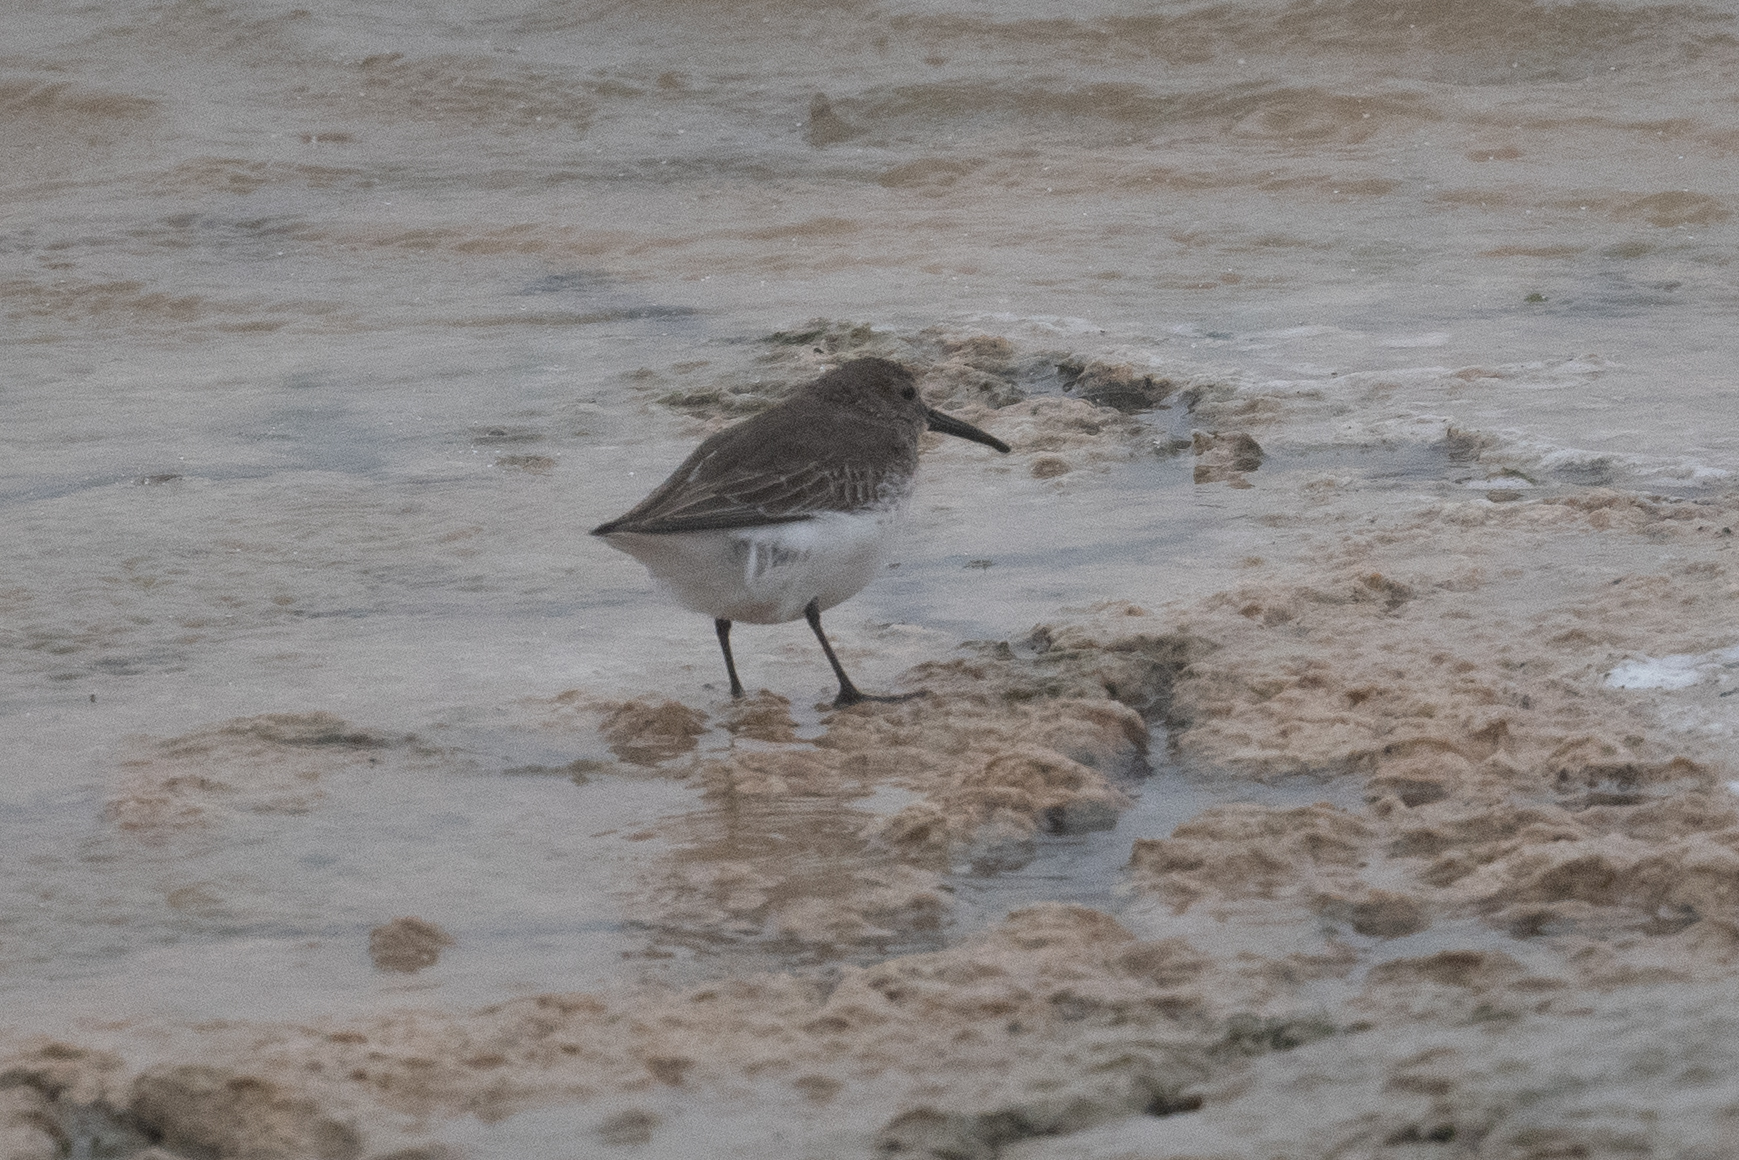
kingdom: Animalia
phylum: Chordata
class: Aves
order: Charadriiformes
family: Scolopacidae
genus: Calidris
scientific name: Calidris alpina
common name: Dunlin
